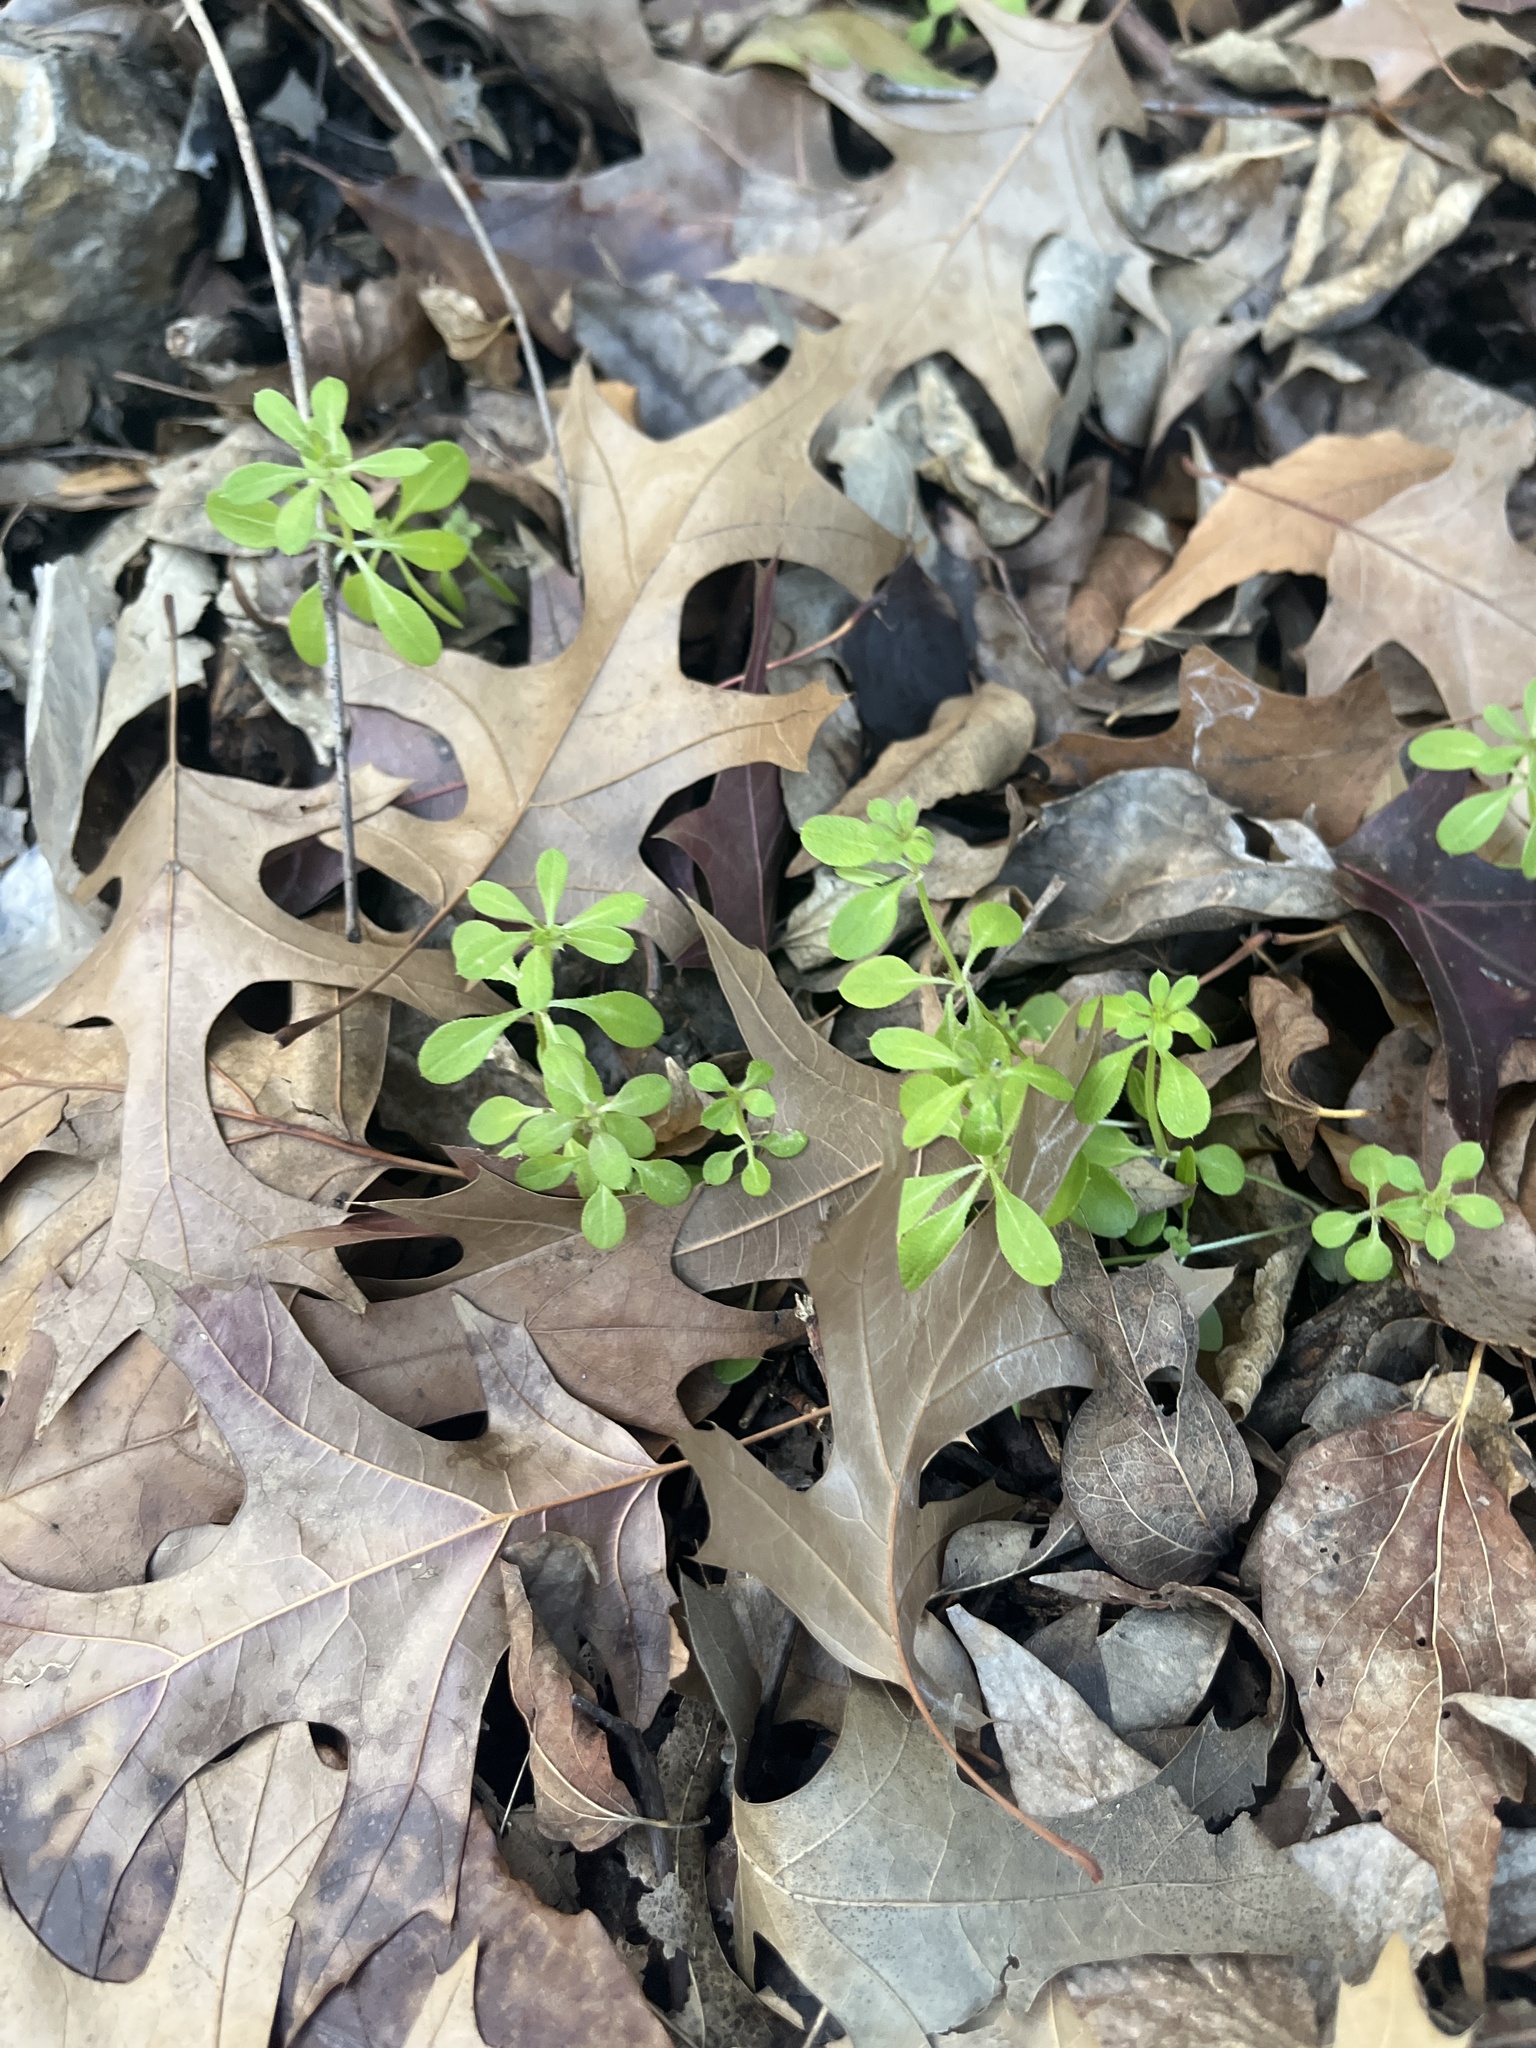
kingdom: Plantae
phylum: Tracheophyta
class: Magnoliopsida
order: Gentianales
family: Rubiaceae
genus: Galium
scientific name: Galium aparine
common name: Cleavers
